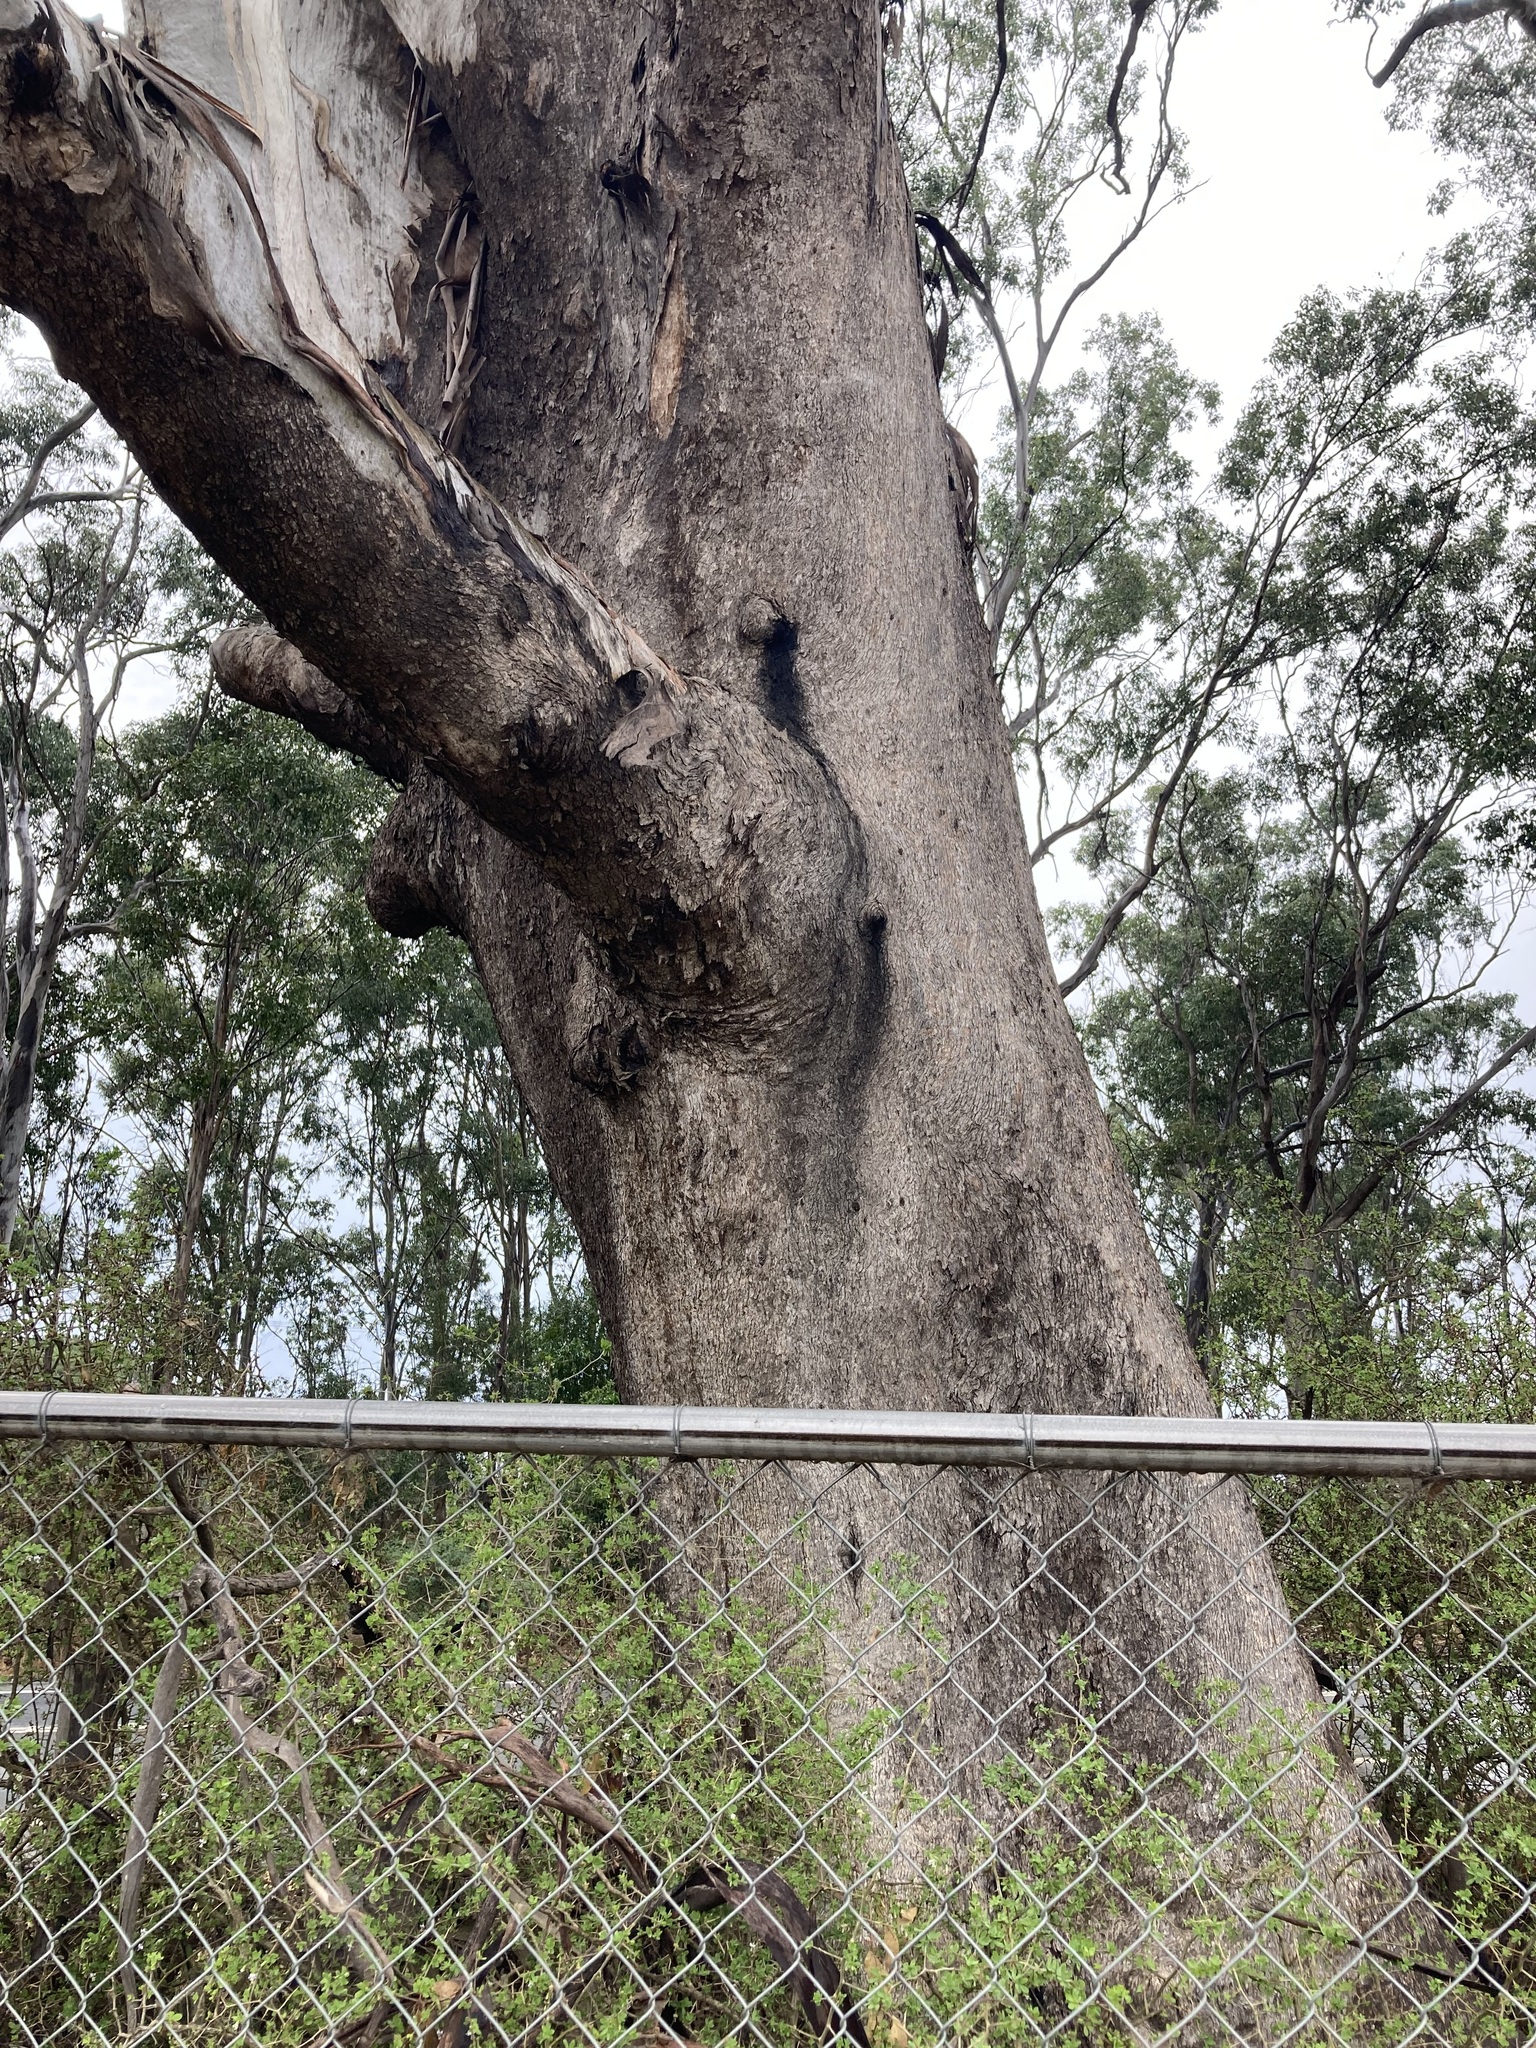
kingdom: Plantae
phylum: Tracheophyta
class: Magnoliopsida
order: Myrtales
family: Myrtaceae
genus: Eucalyptus
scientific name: Eucalyptus moluccana
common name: Grey-box
